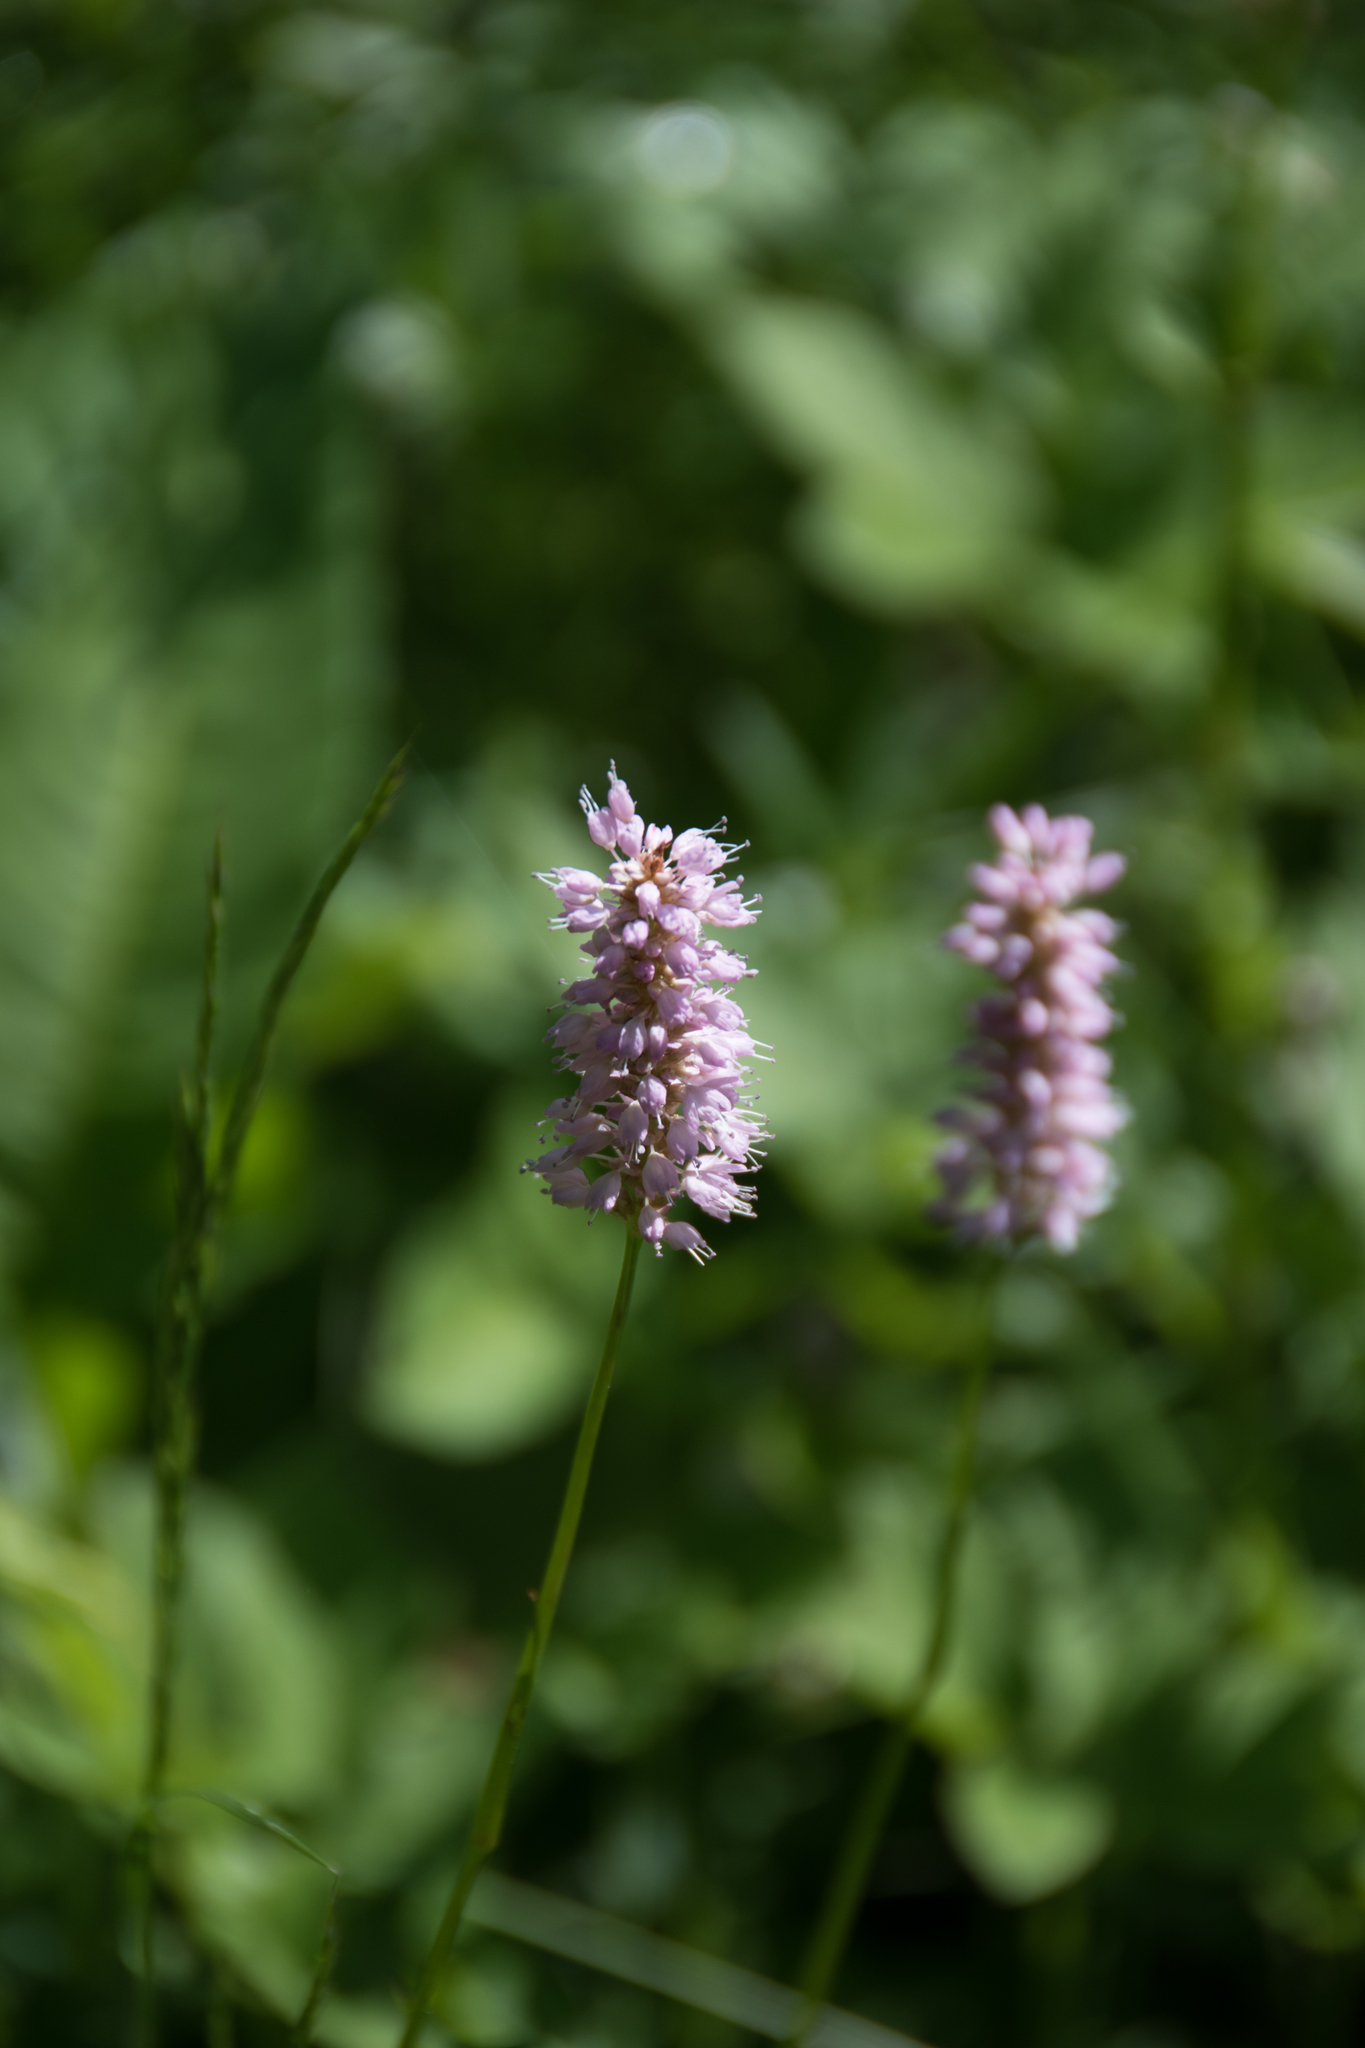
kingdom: Plantae
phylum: Tracheophyta
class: Magnoliopsida
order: Caryophyllales
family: Polygonaceae
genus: Bistorta
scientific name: Bistorta officinalis
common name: Common bistort
